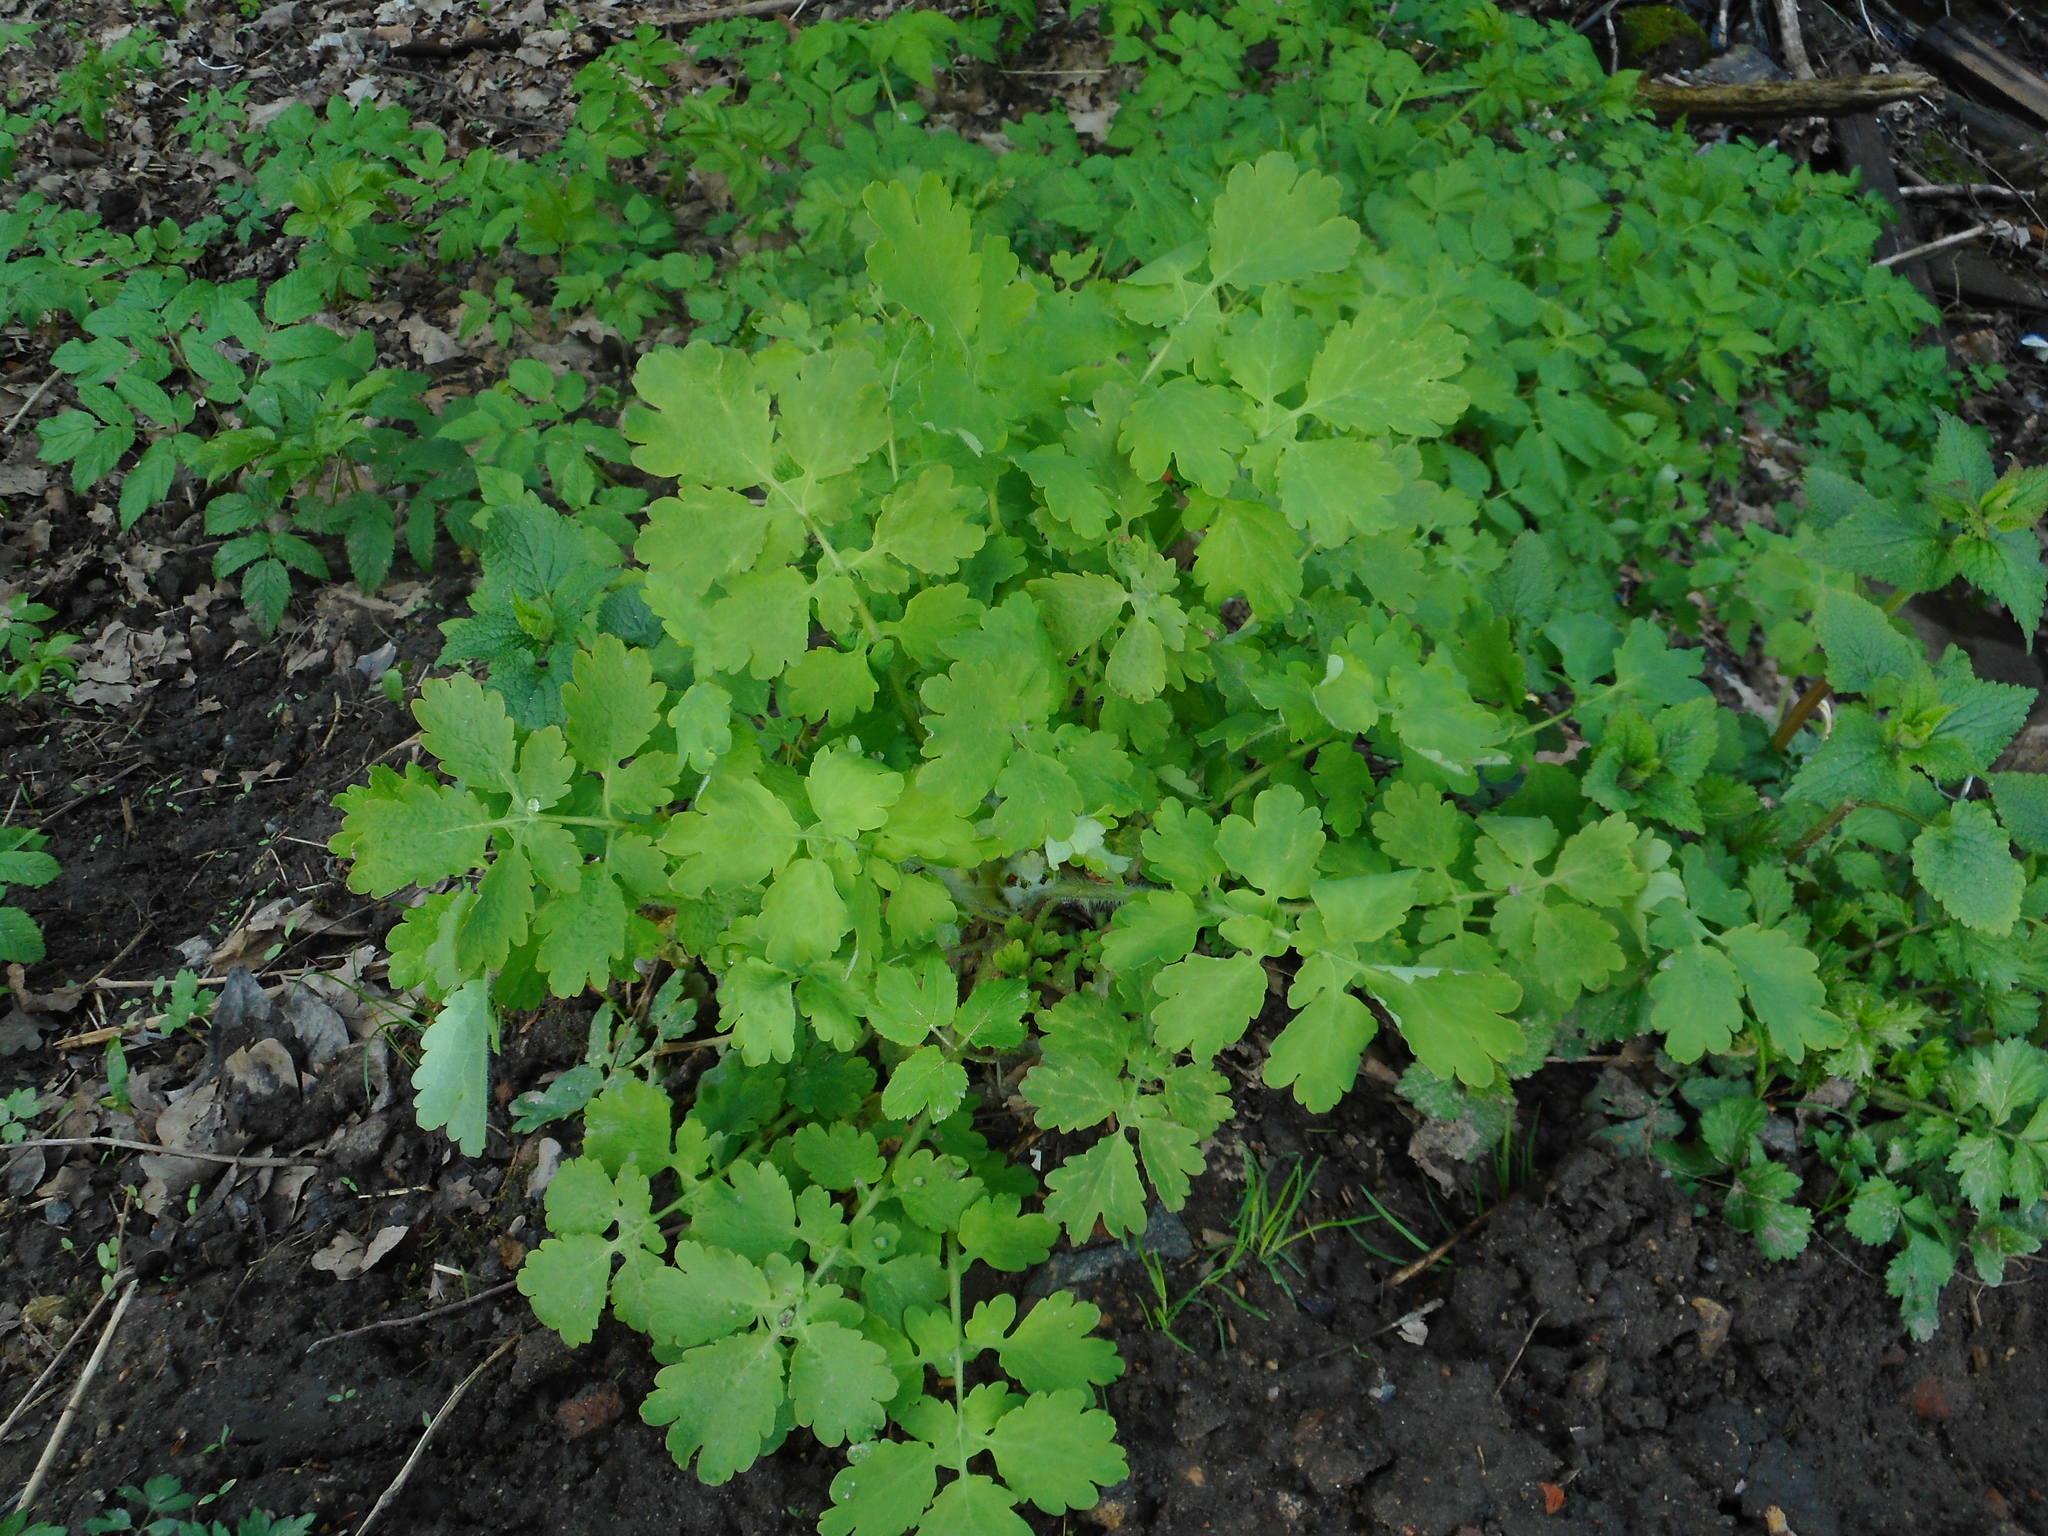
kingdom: Plantae
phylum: Tracheophyta
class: Magnoliopsida
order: Ranunculales
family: Papaveraceae
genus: Chelidonium
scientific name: Chelidonium majus
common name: Greater celandine
